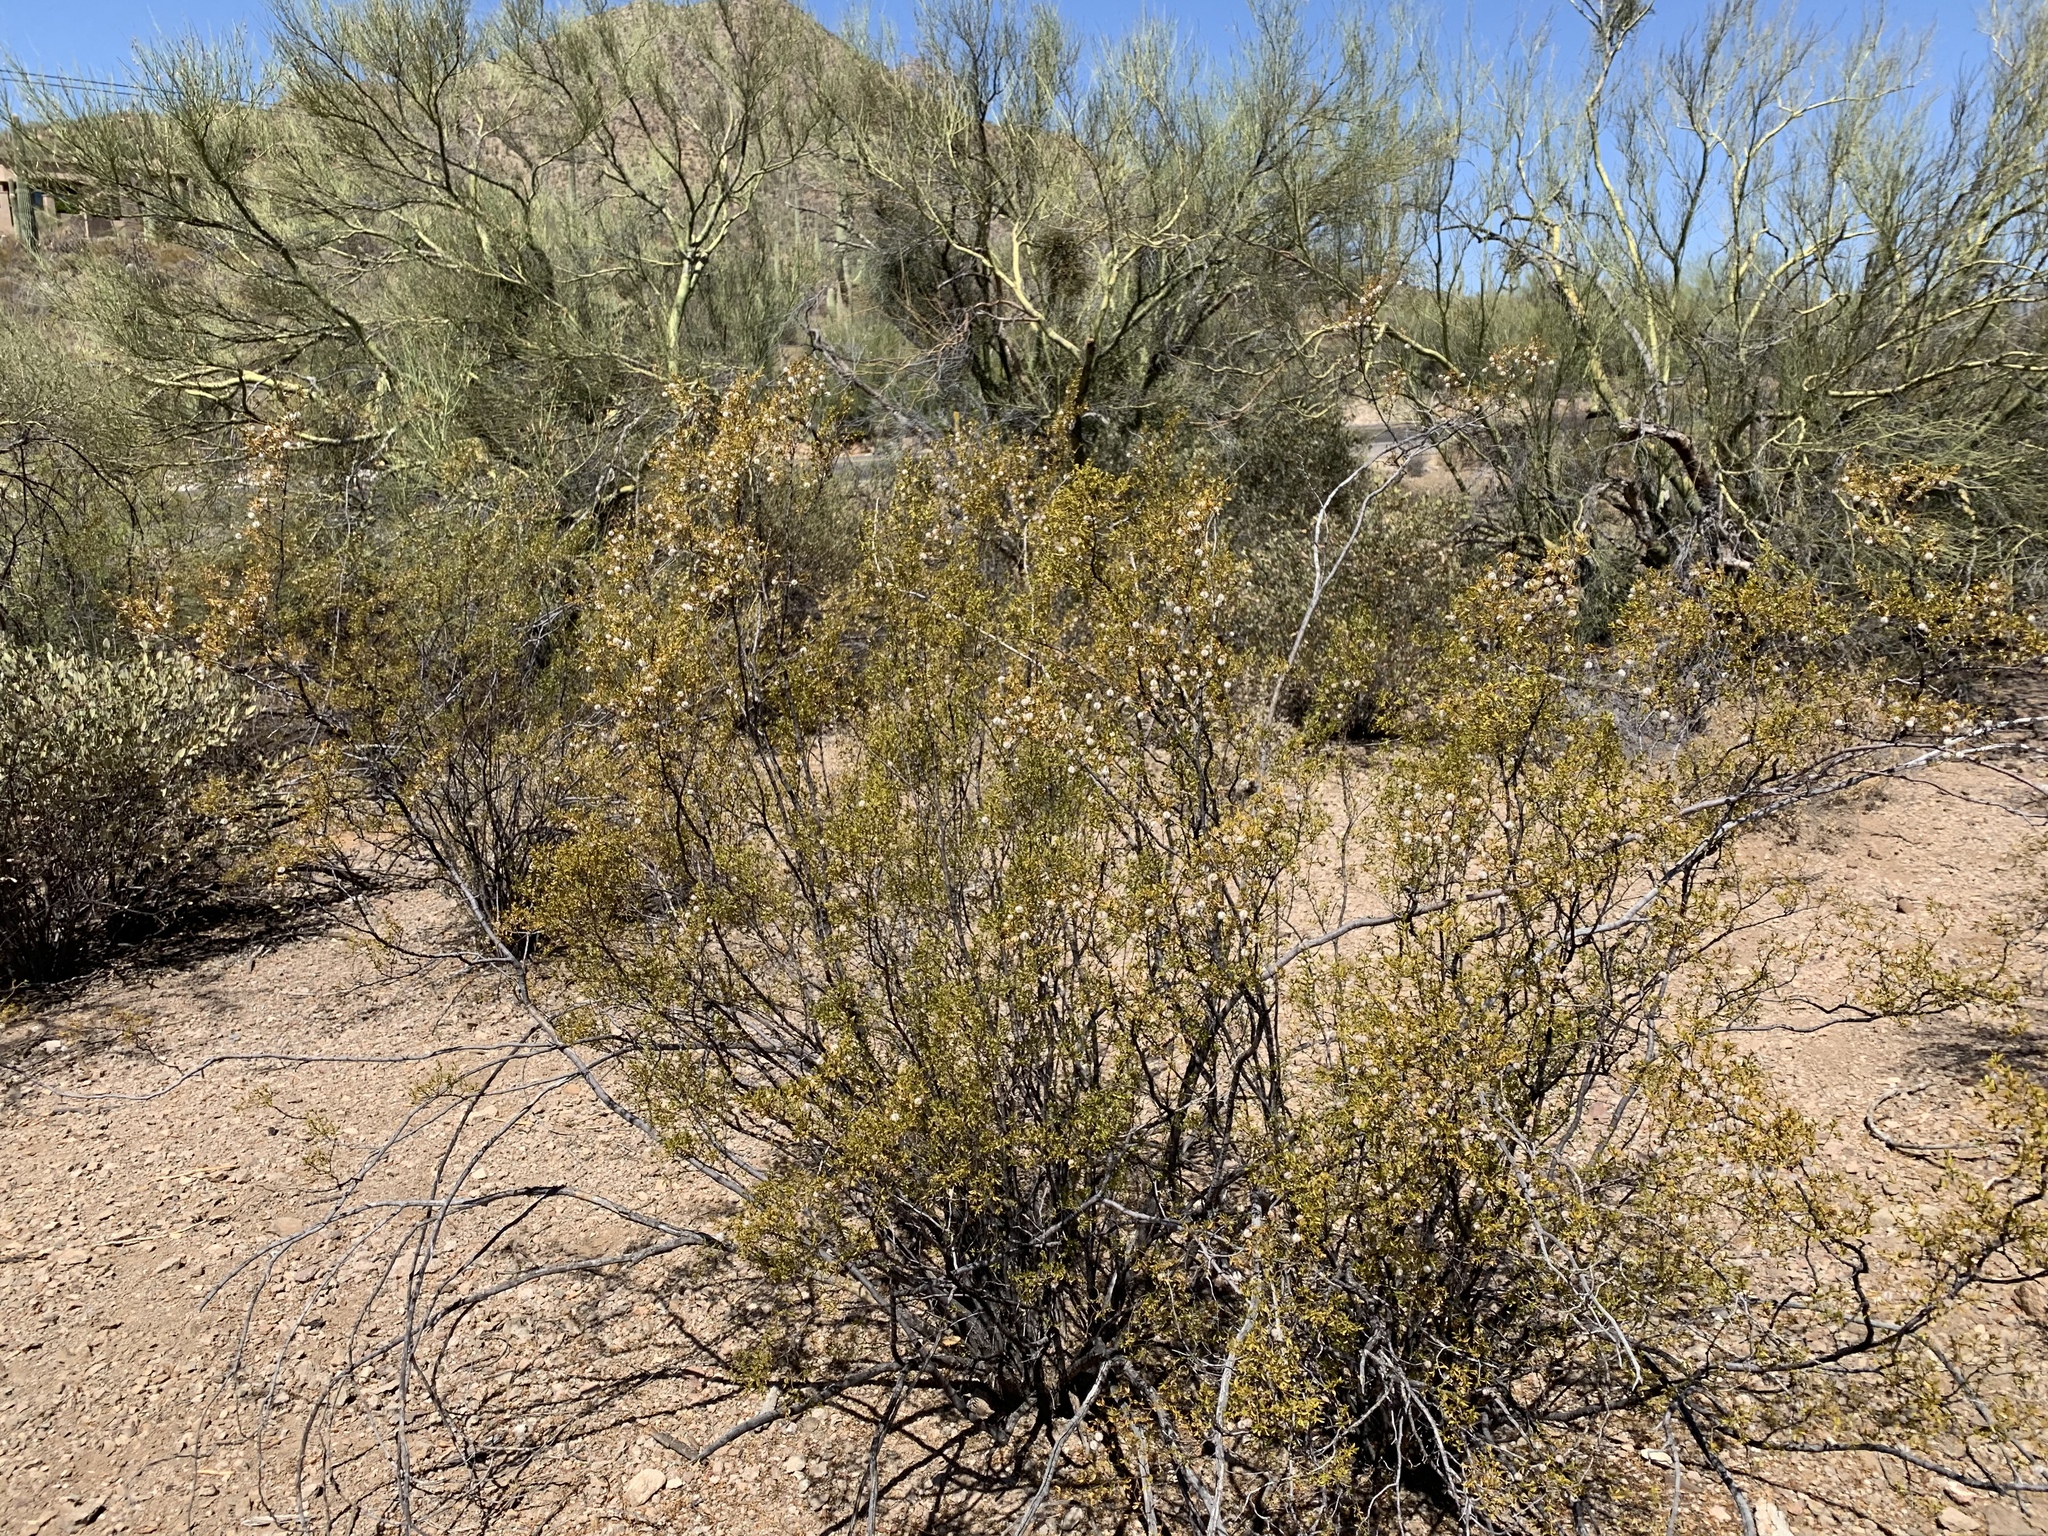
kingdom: Plantae
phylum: Tracheophyta
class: Magnoliopsida
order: Zygophyllales
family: Zygophyllaceae
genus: Larrea
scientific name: Larrea tridentata
